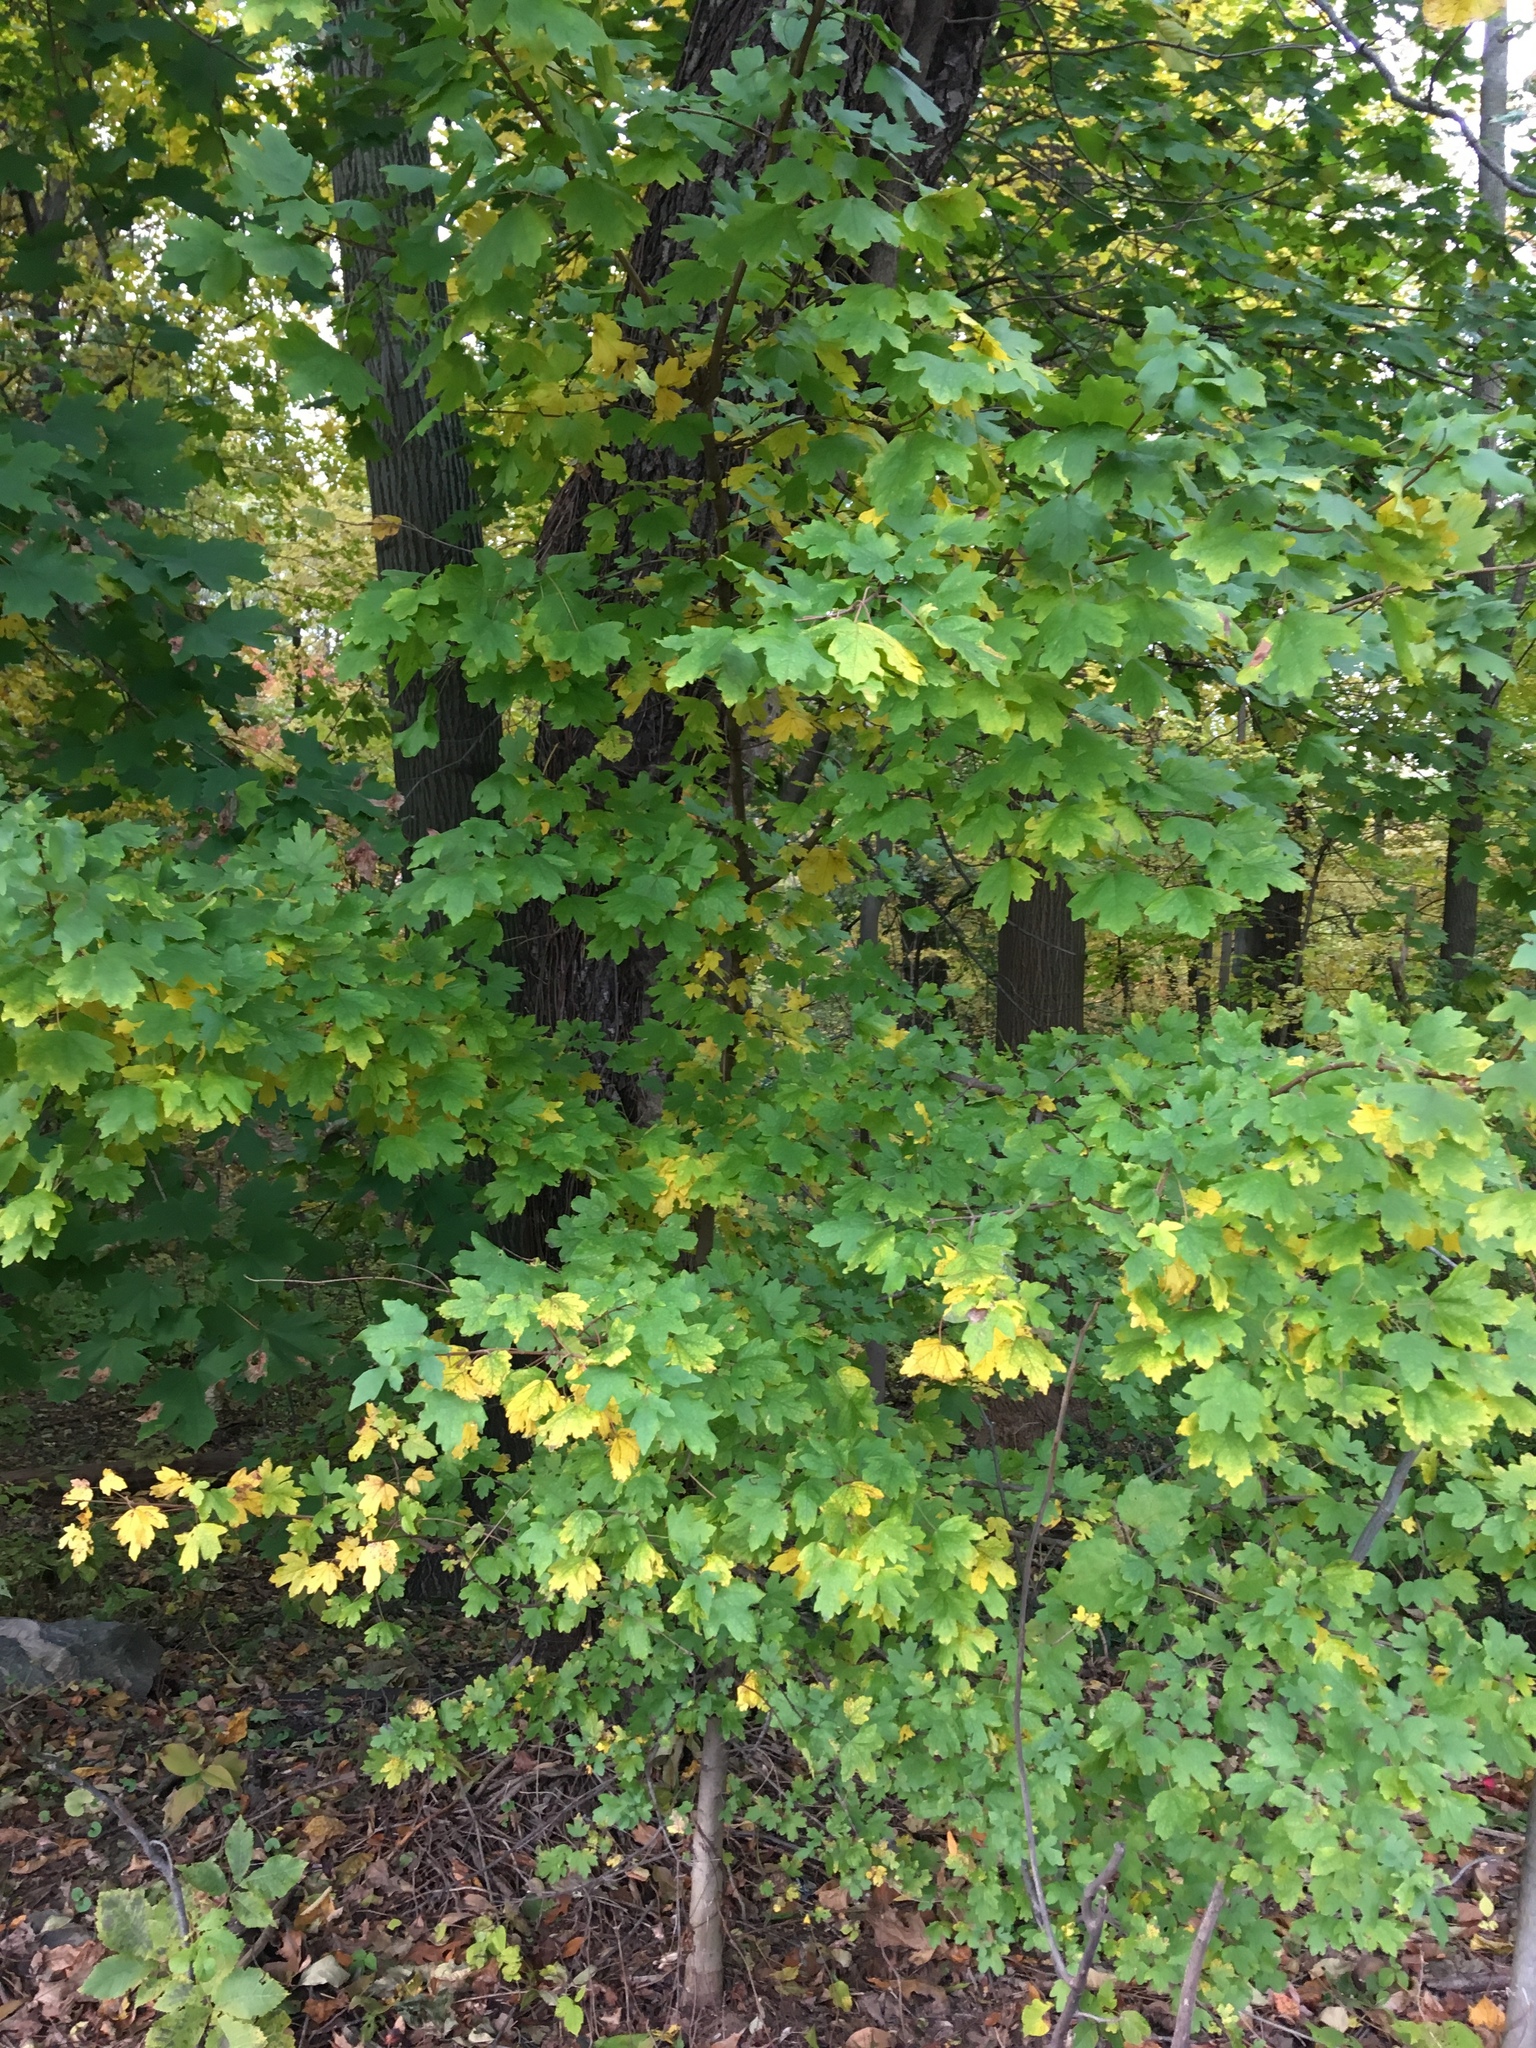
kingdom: Plantae
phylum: Tracheophyta
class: Magnoliopsida
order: Sapindales
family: Sapindaceae
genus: Acer
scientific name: Acer campestre
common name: Field maple
